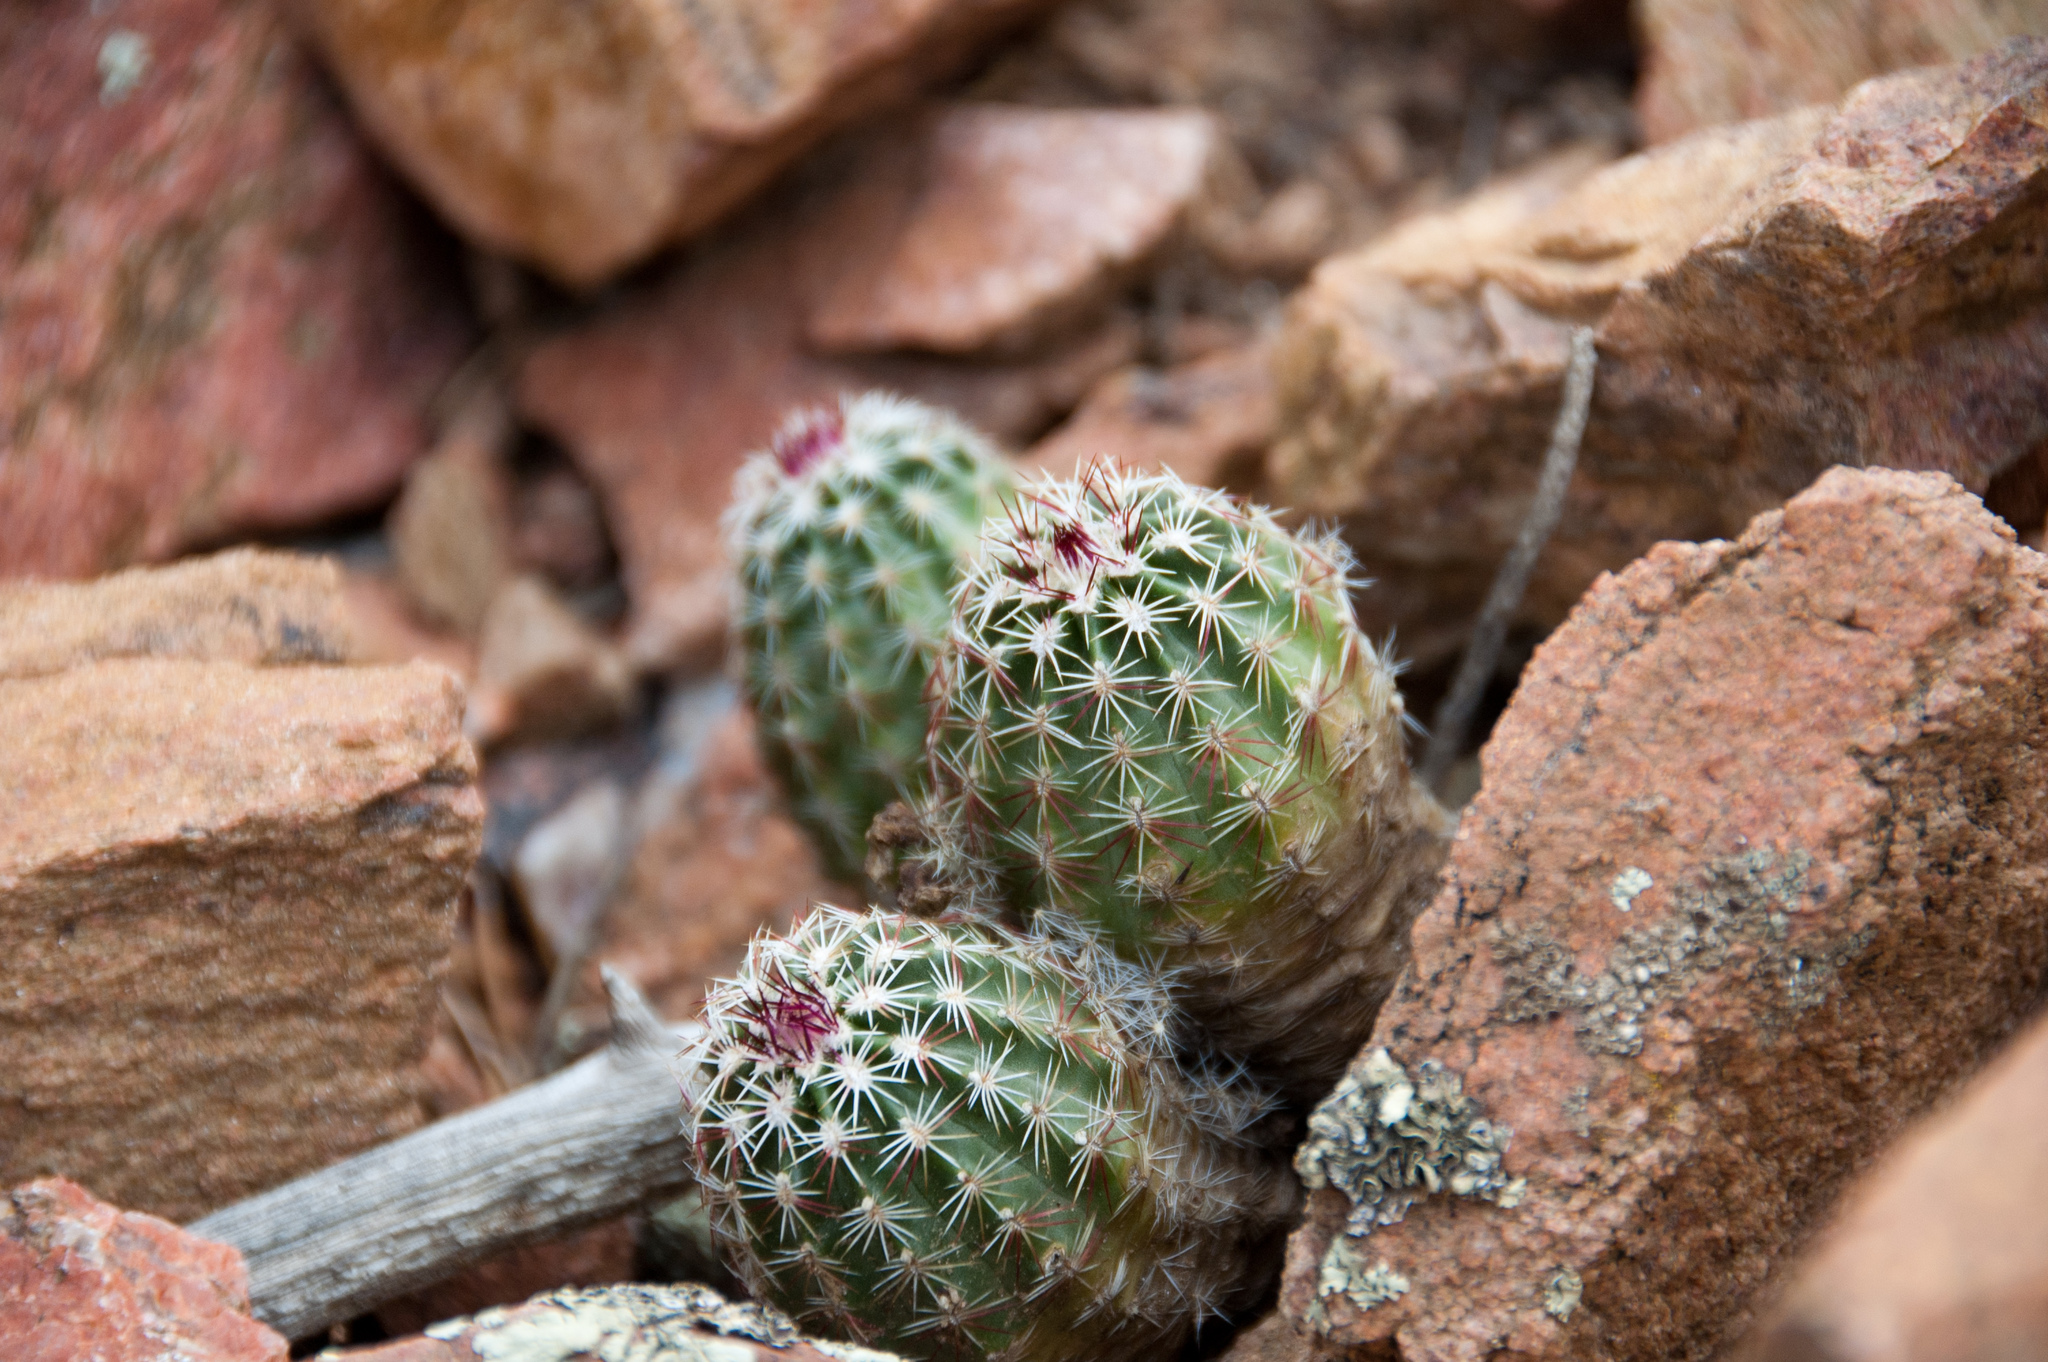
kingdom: Plantae
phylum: Tracheophyta
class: Magnoliopsida
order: Caryophyllales
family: Cactaceae
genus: Echinocereus
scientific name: Echinocereus viridiflorus
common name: Nylon hedgehog cactus
